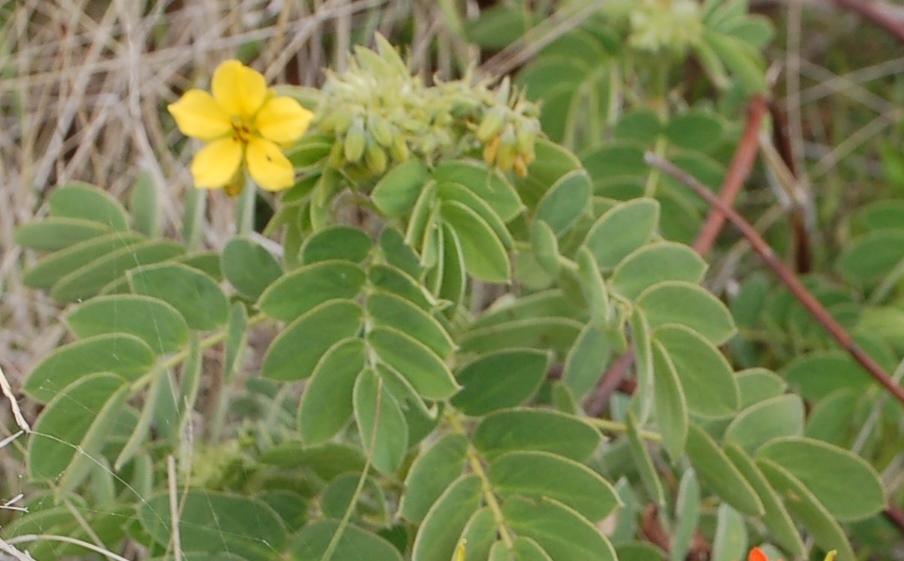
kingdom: Plantae
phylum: Tracheophyta
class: Magnoliopsida
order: Fabales
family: Fabaceae
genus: Senna
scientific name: Senna uniflora
